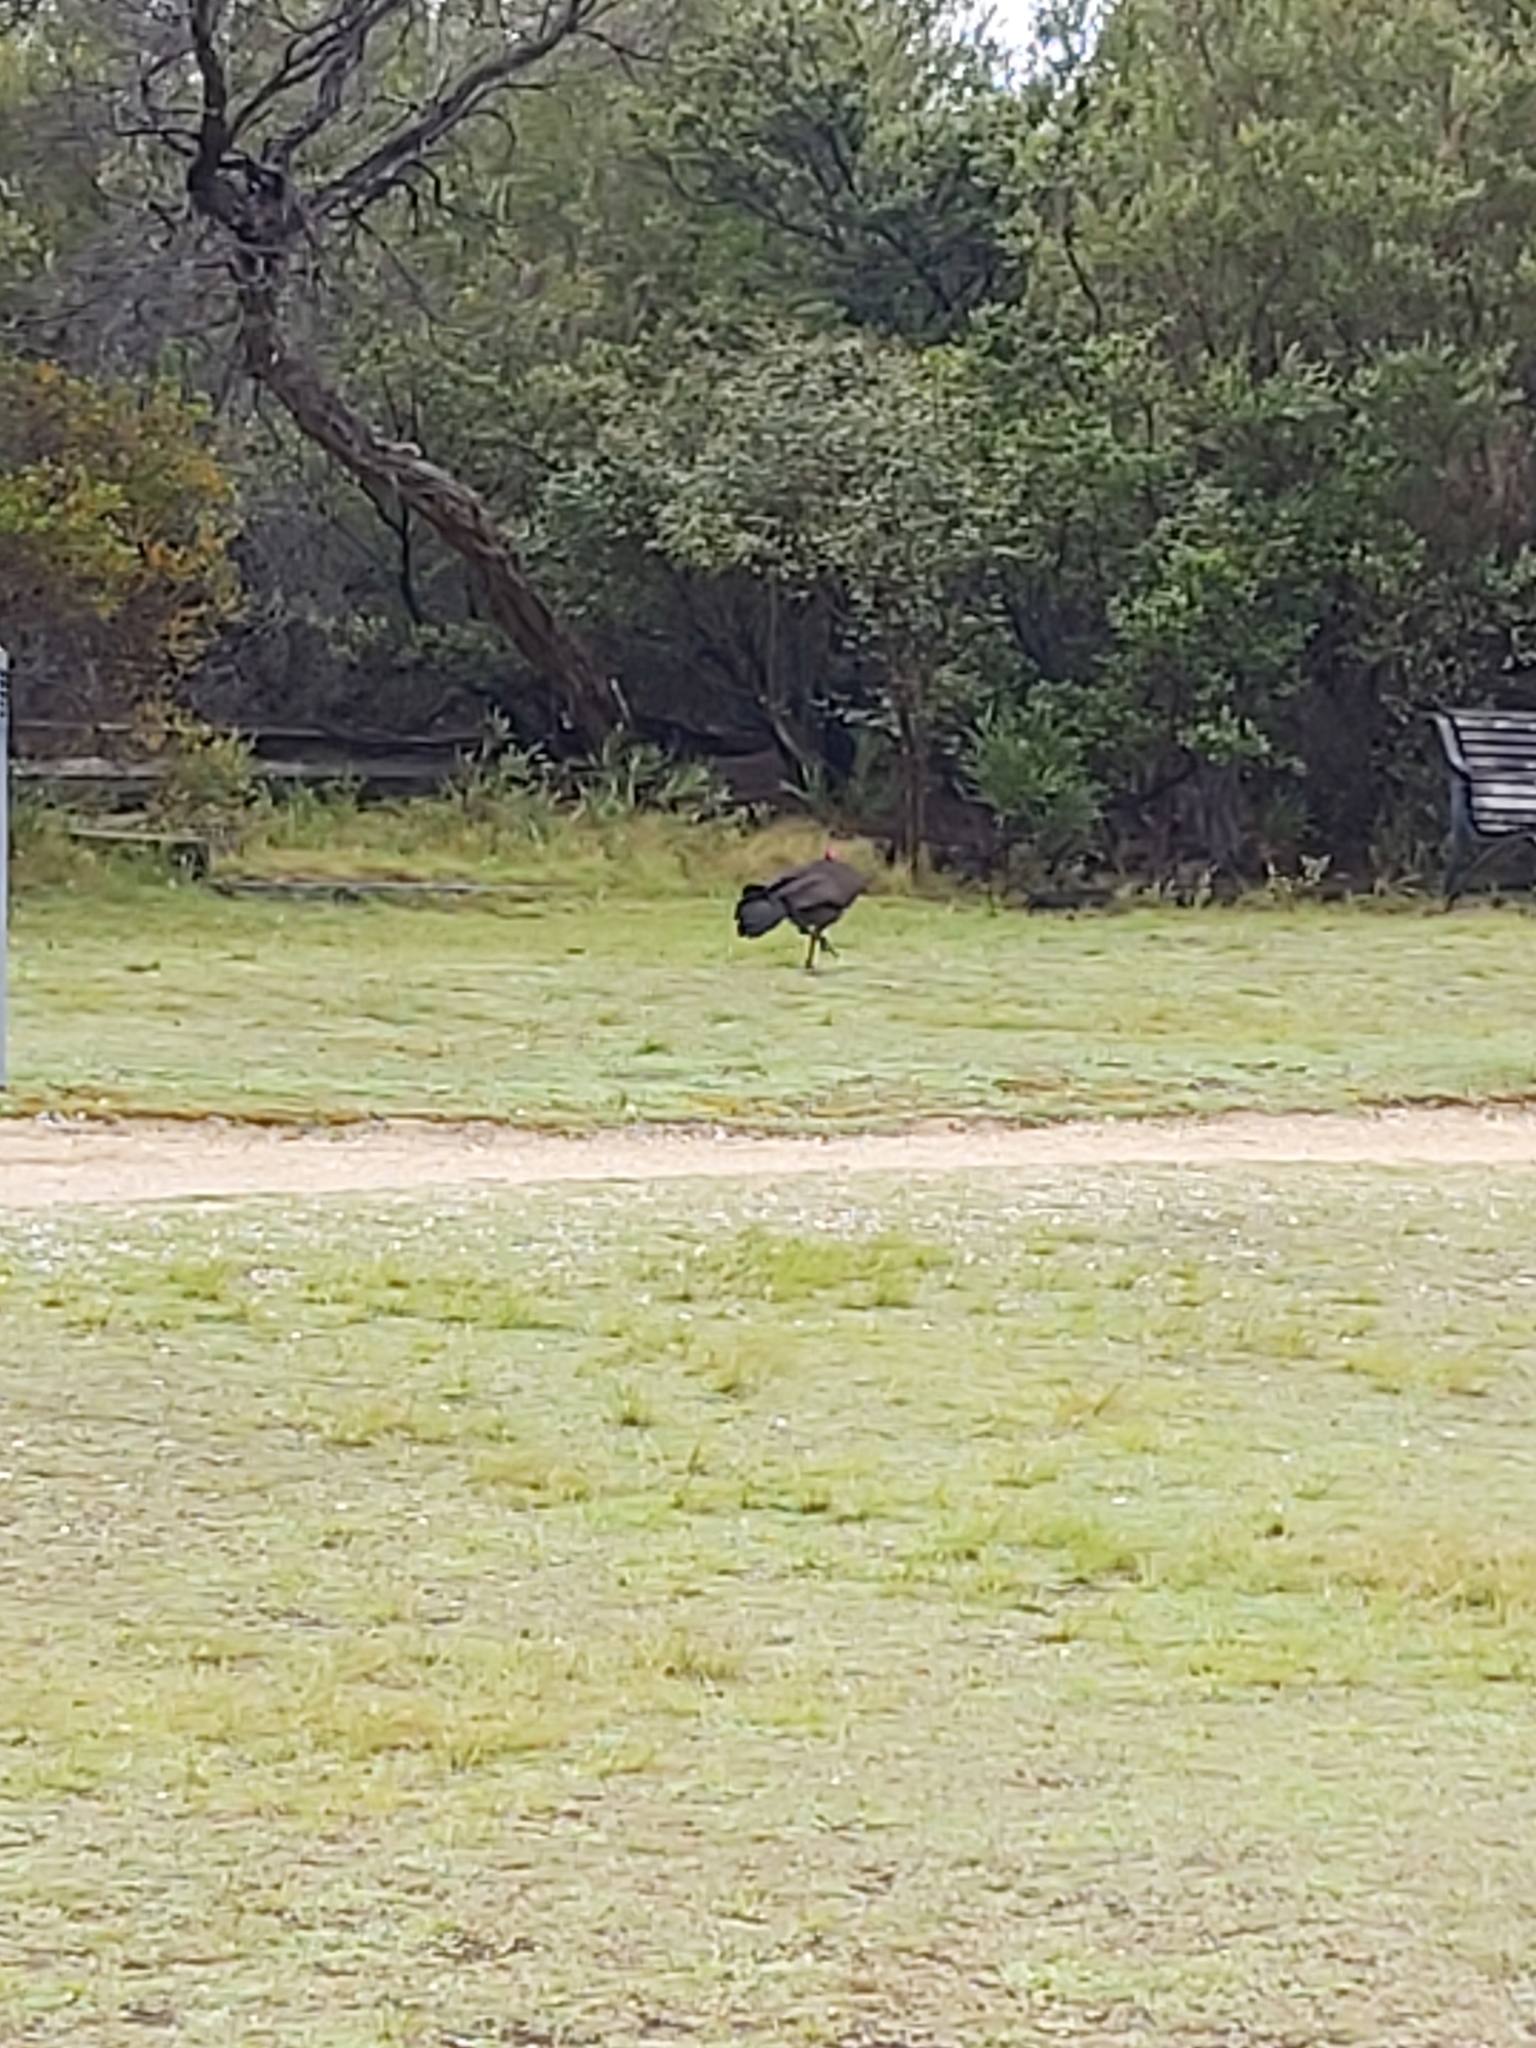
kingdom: Animalia
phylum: Chordata
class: Aves
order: Galliformes
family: Megapodiidae
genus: Alectura
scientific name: Alectura lathami
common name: Australian brushturkey
